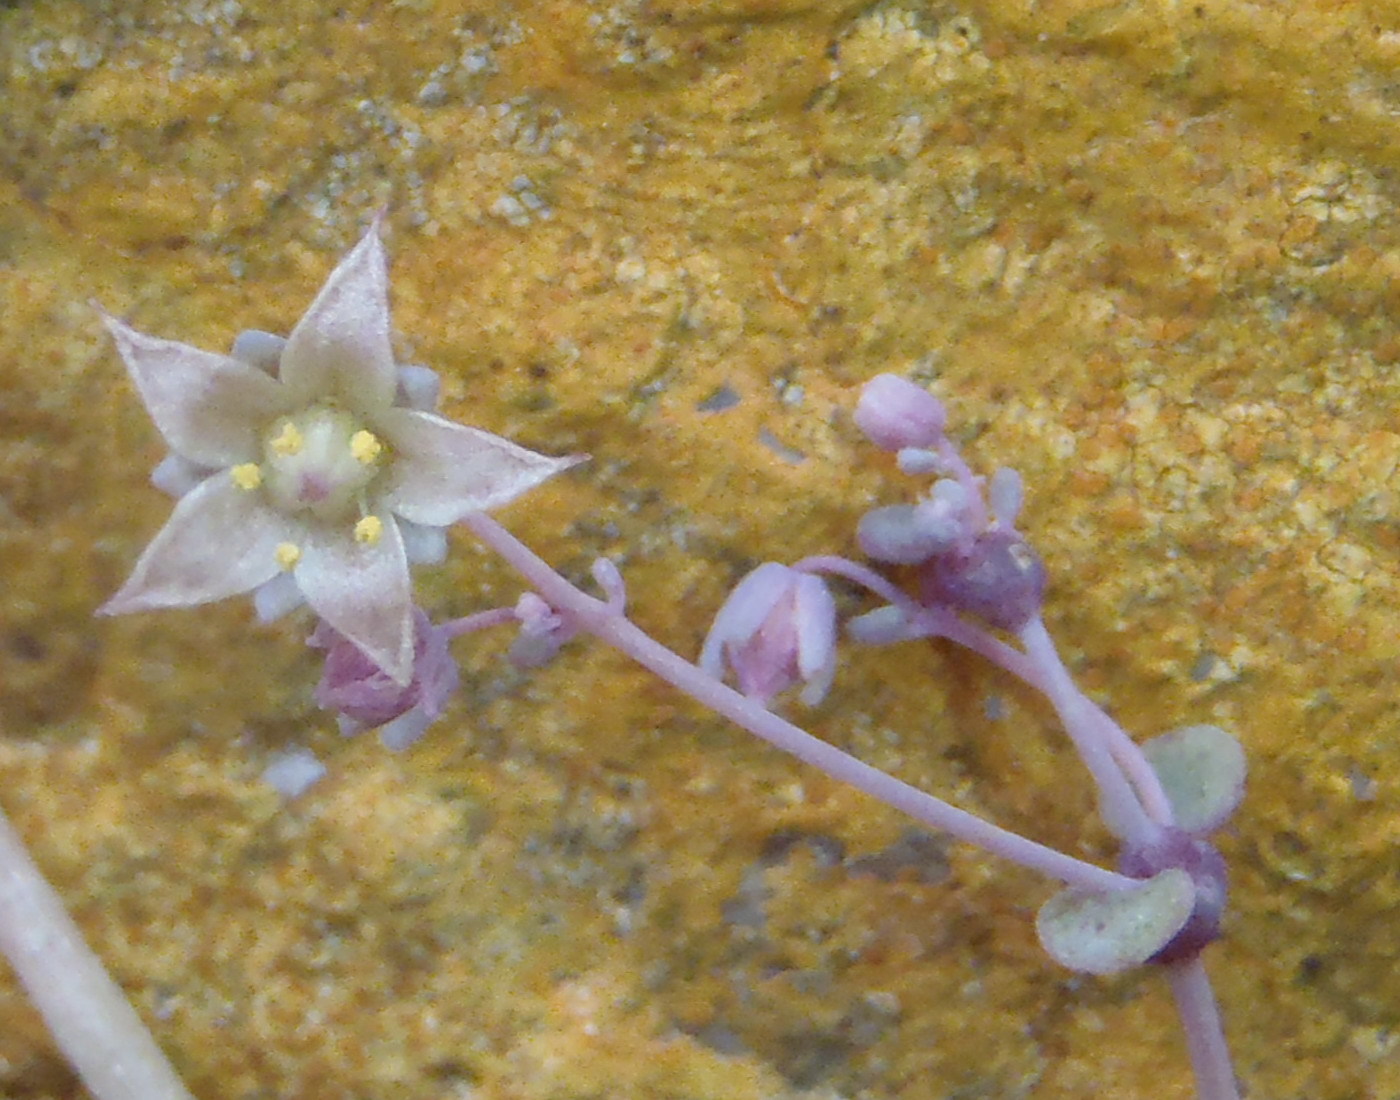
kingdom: Plantae
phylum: Tracheophyta
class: Magnoliopsida
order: Saxifragales
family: Crassulaceae
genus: Crassula
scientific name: Crassula nemorosa
